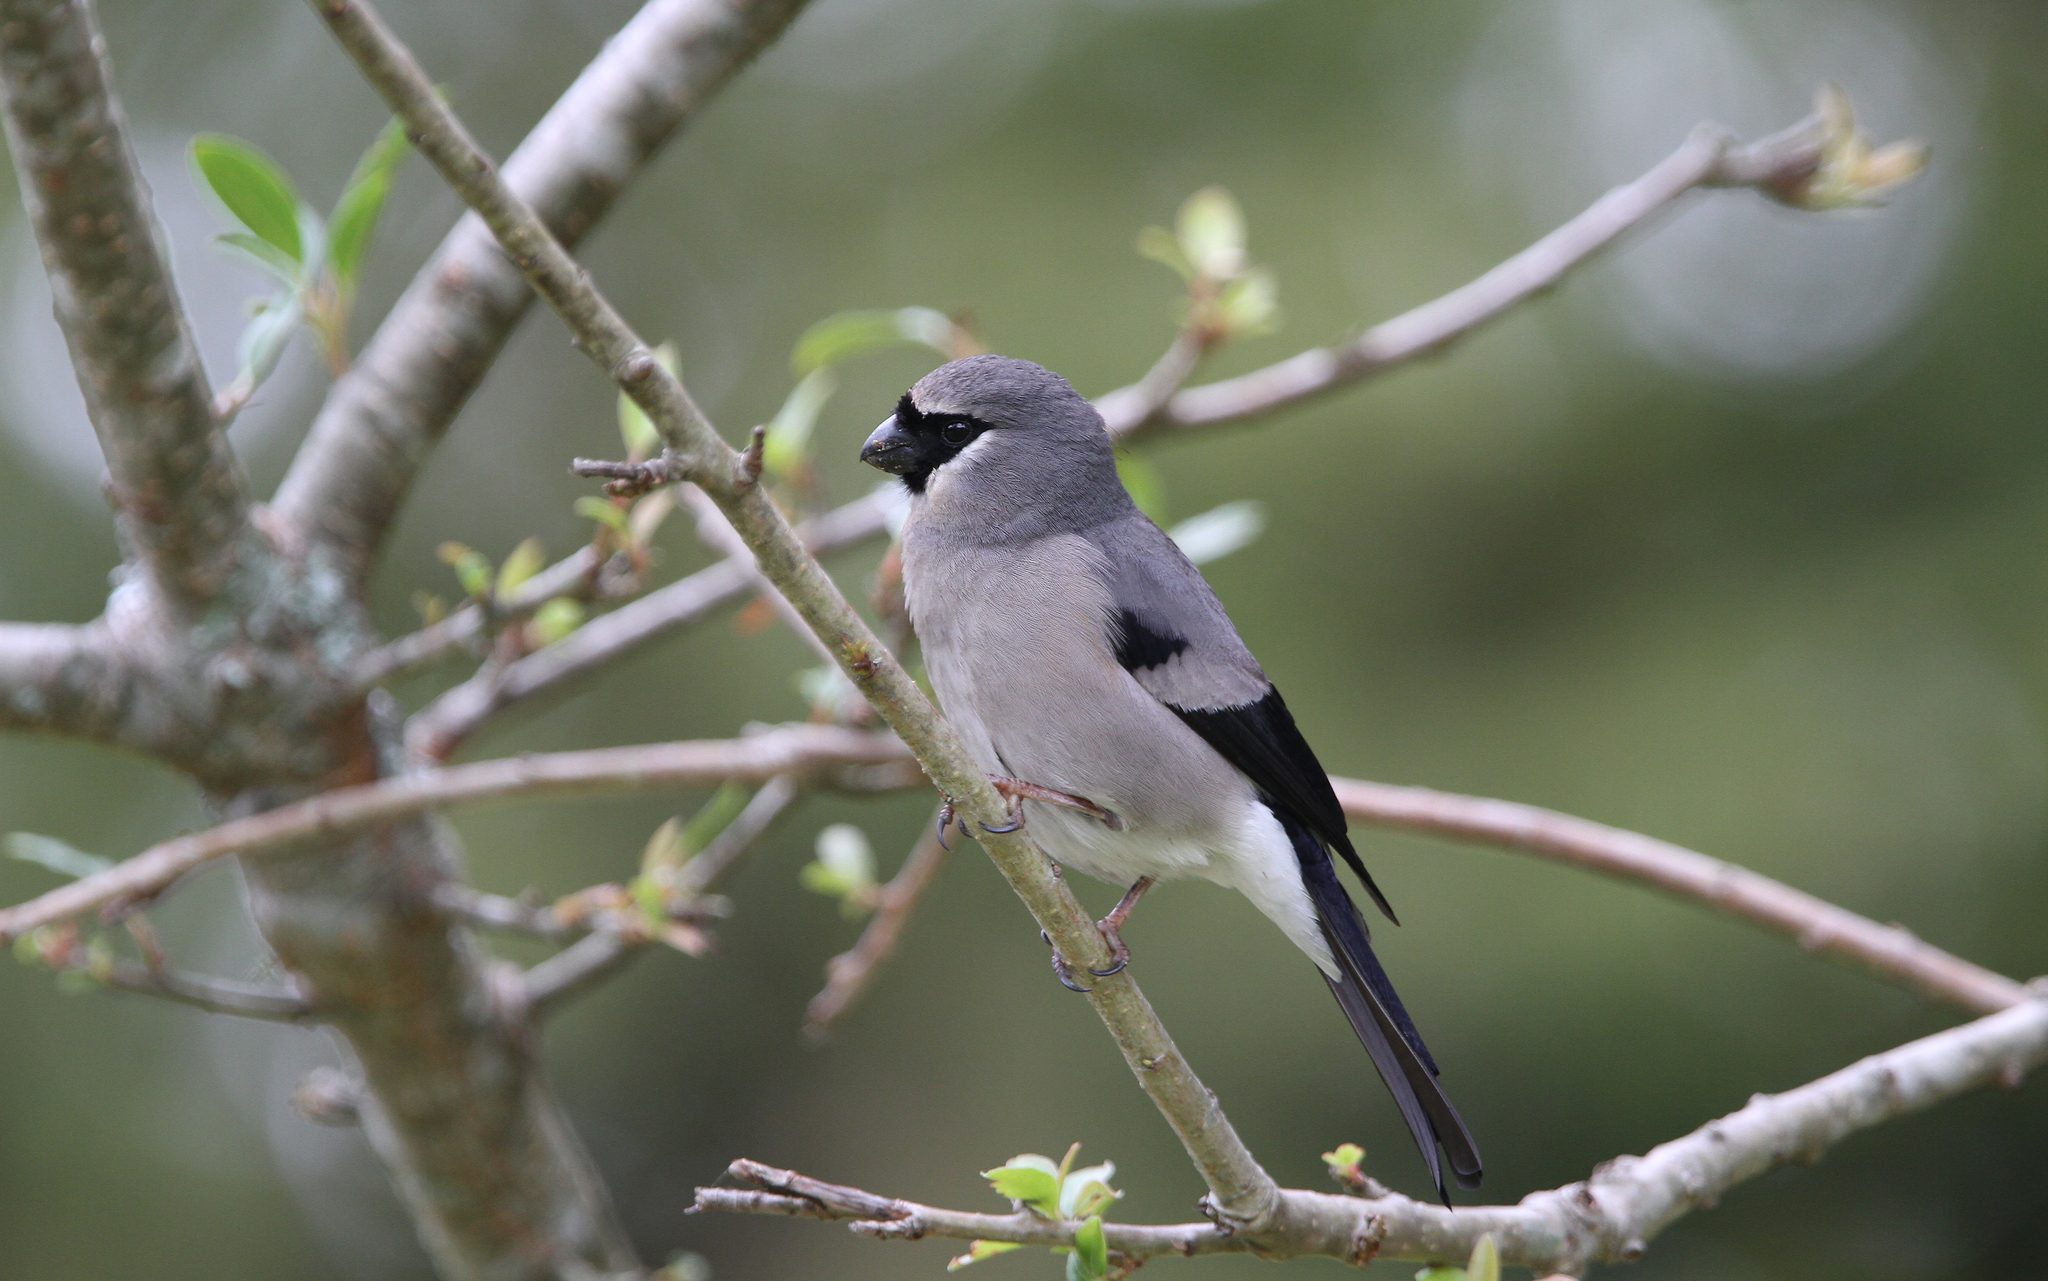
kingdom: Animalia
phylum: Chordata
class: Aves
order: Passeriformes
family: Fringillidae
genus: Pyrrhula
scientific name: Pyrrhula owstoni
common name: Taiwan bullfinch
